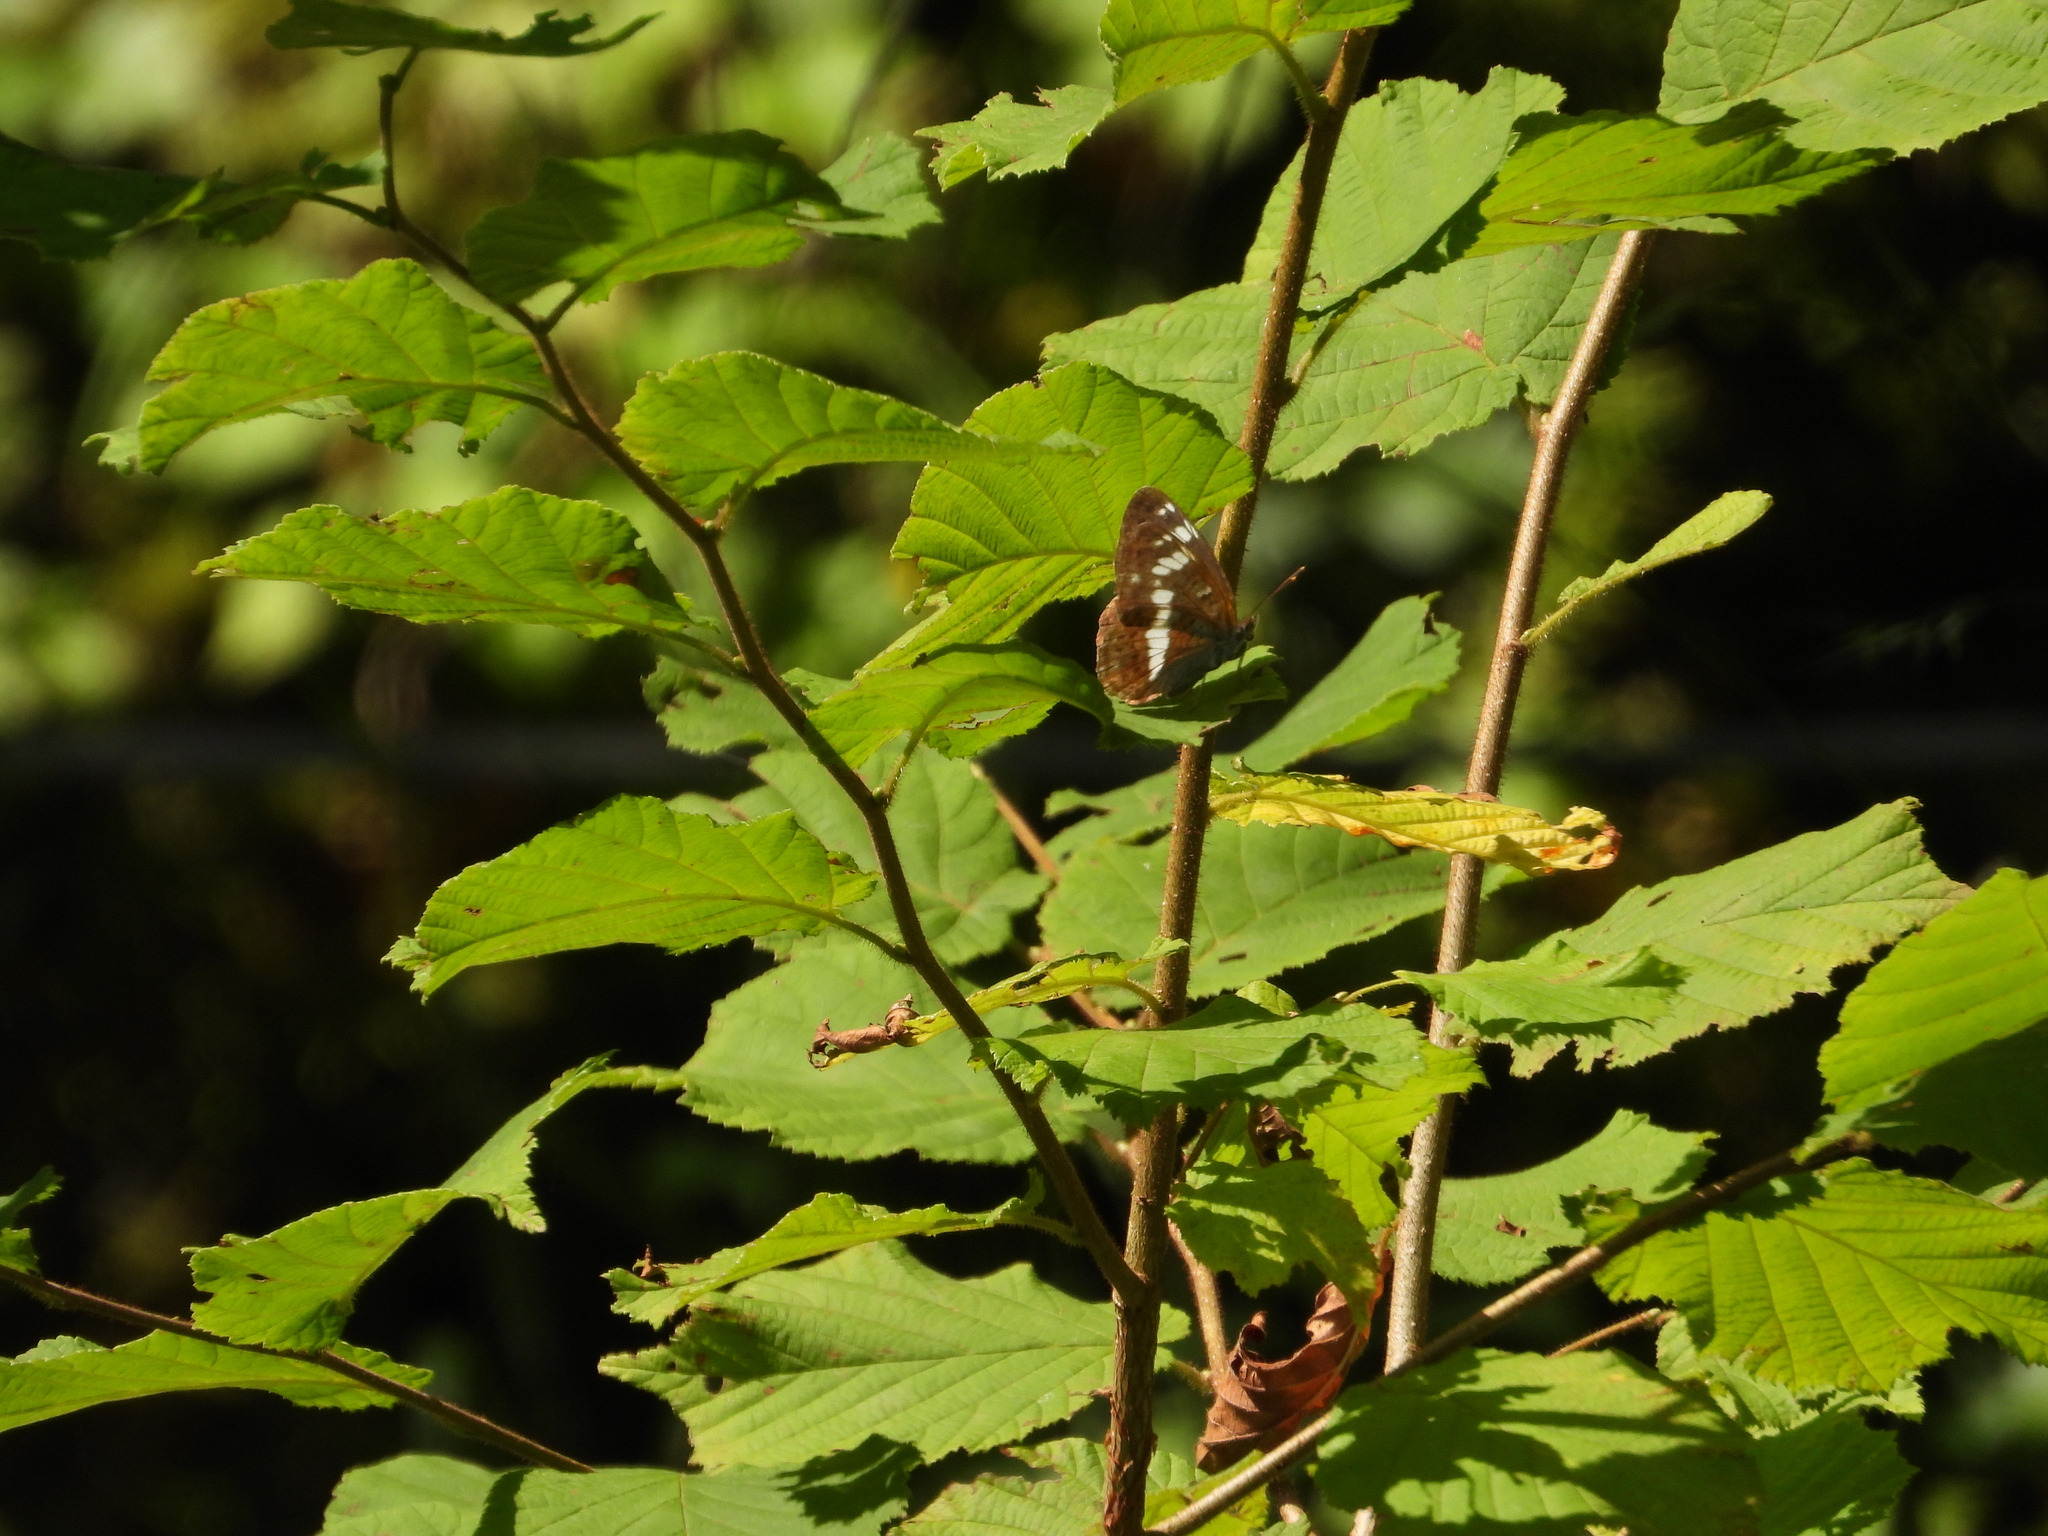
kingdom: Animalia
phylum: Arthropoda
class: Insecta
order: Lepidoptera
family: Nymphalidae
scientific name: Nymphalidae
